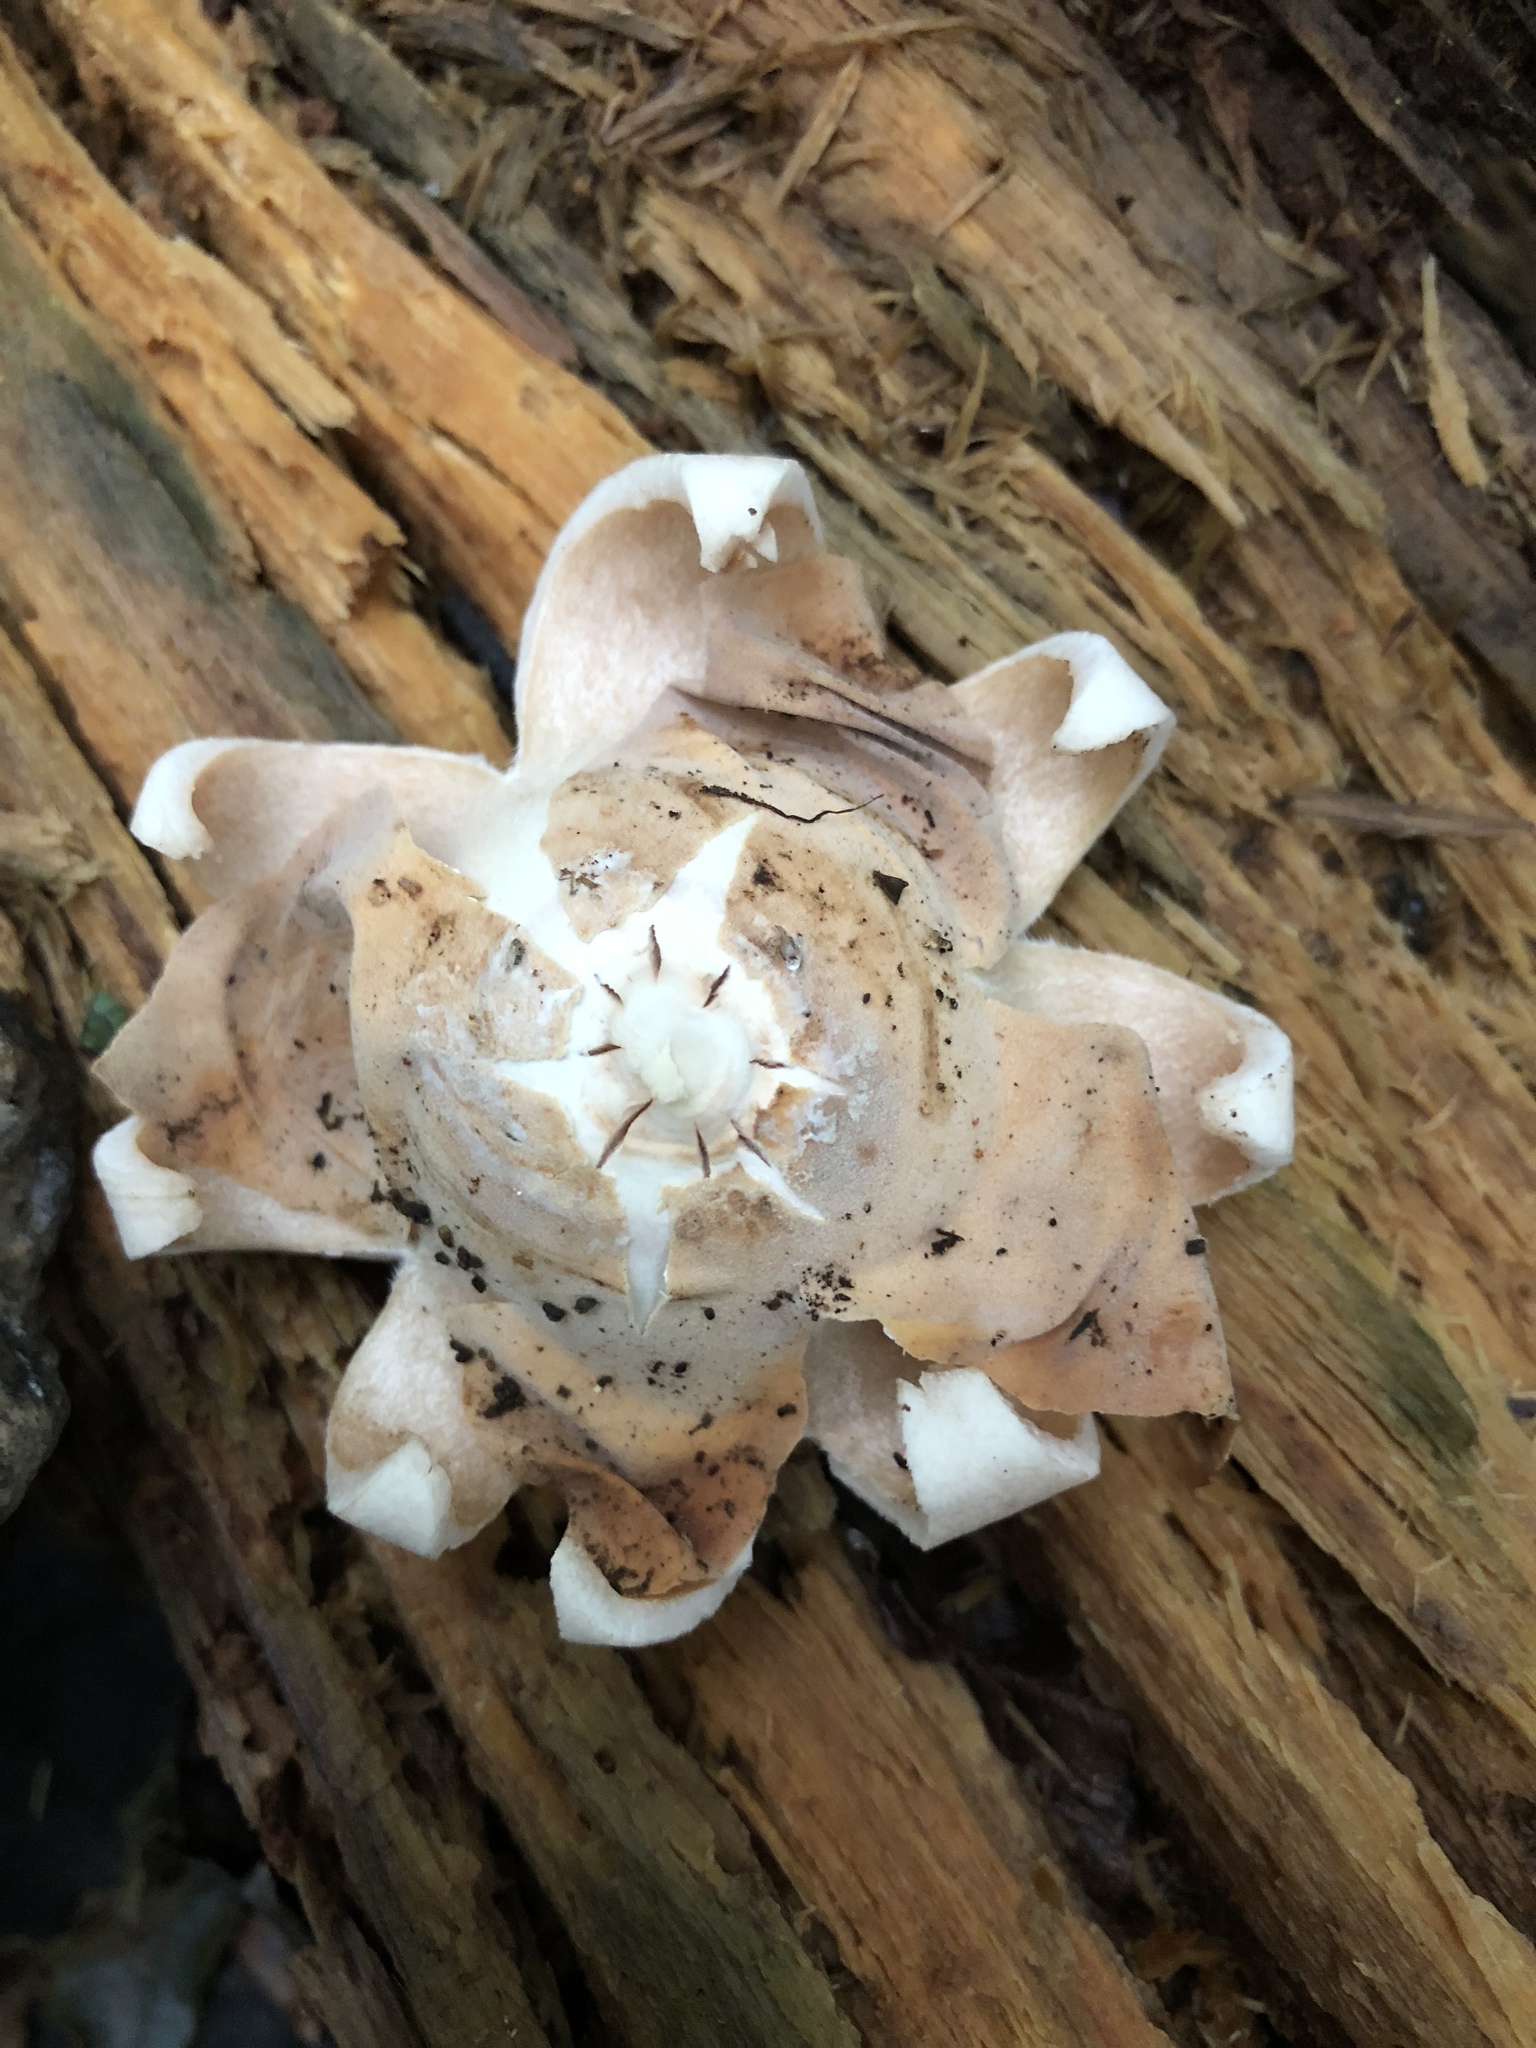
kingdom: Fungi
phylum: Basidiomycota
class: Agaricomycetes
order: Geastrales
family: Geastraceae
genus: Geastrum
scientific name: Geastrum saccatum
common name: Rounded earthstar
